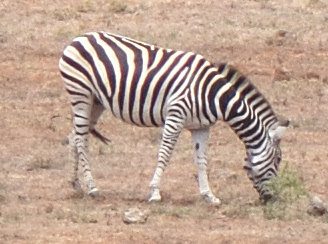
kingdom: Animalia
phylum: Chordata
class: Mammalia
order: Perissodactyla
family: Equidae
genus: Equus
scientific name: Equus quagga
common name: Plains zebra
